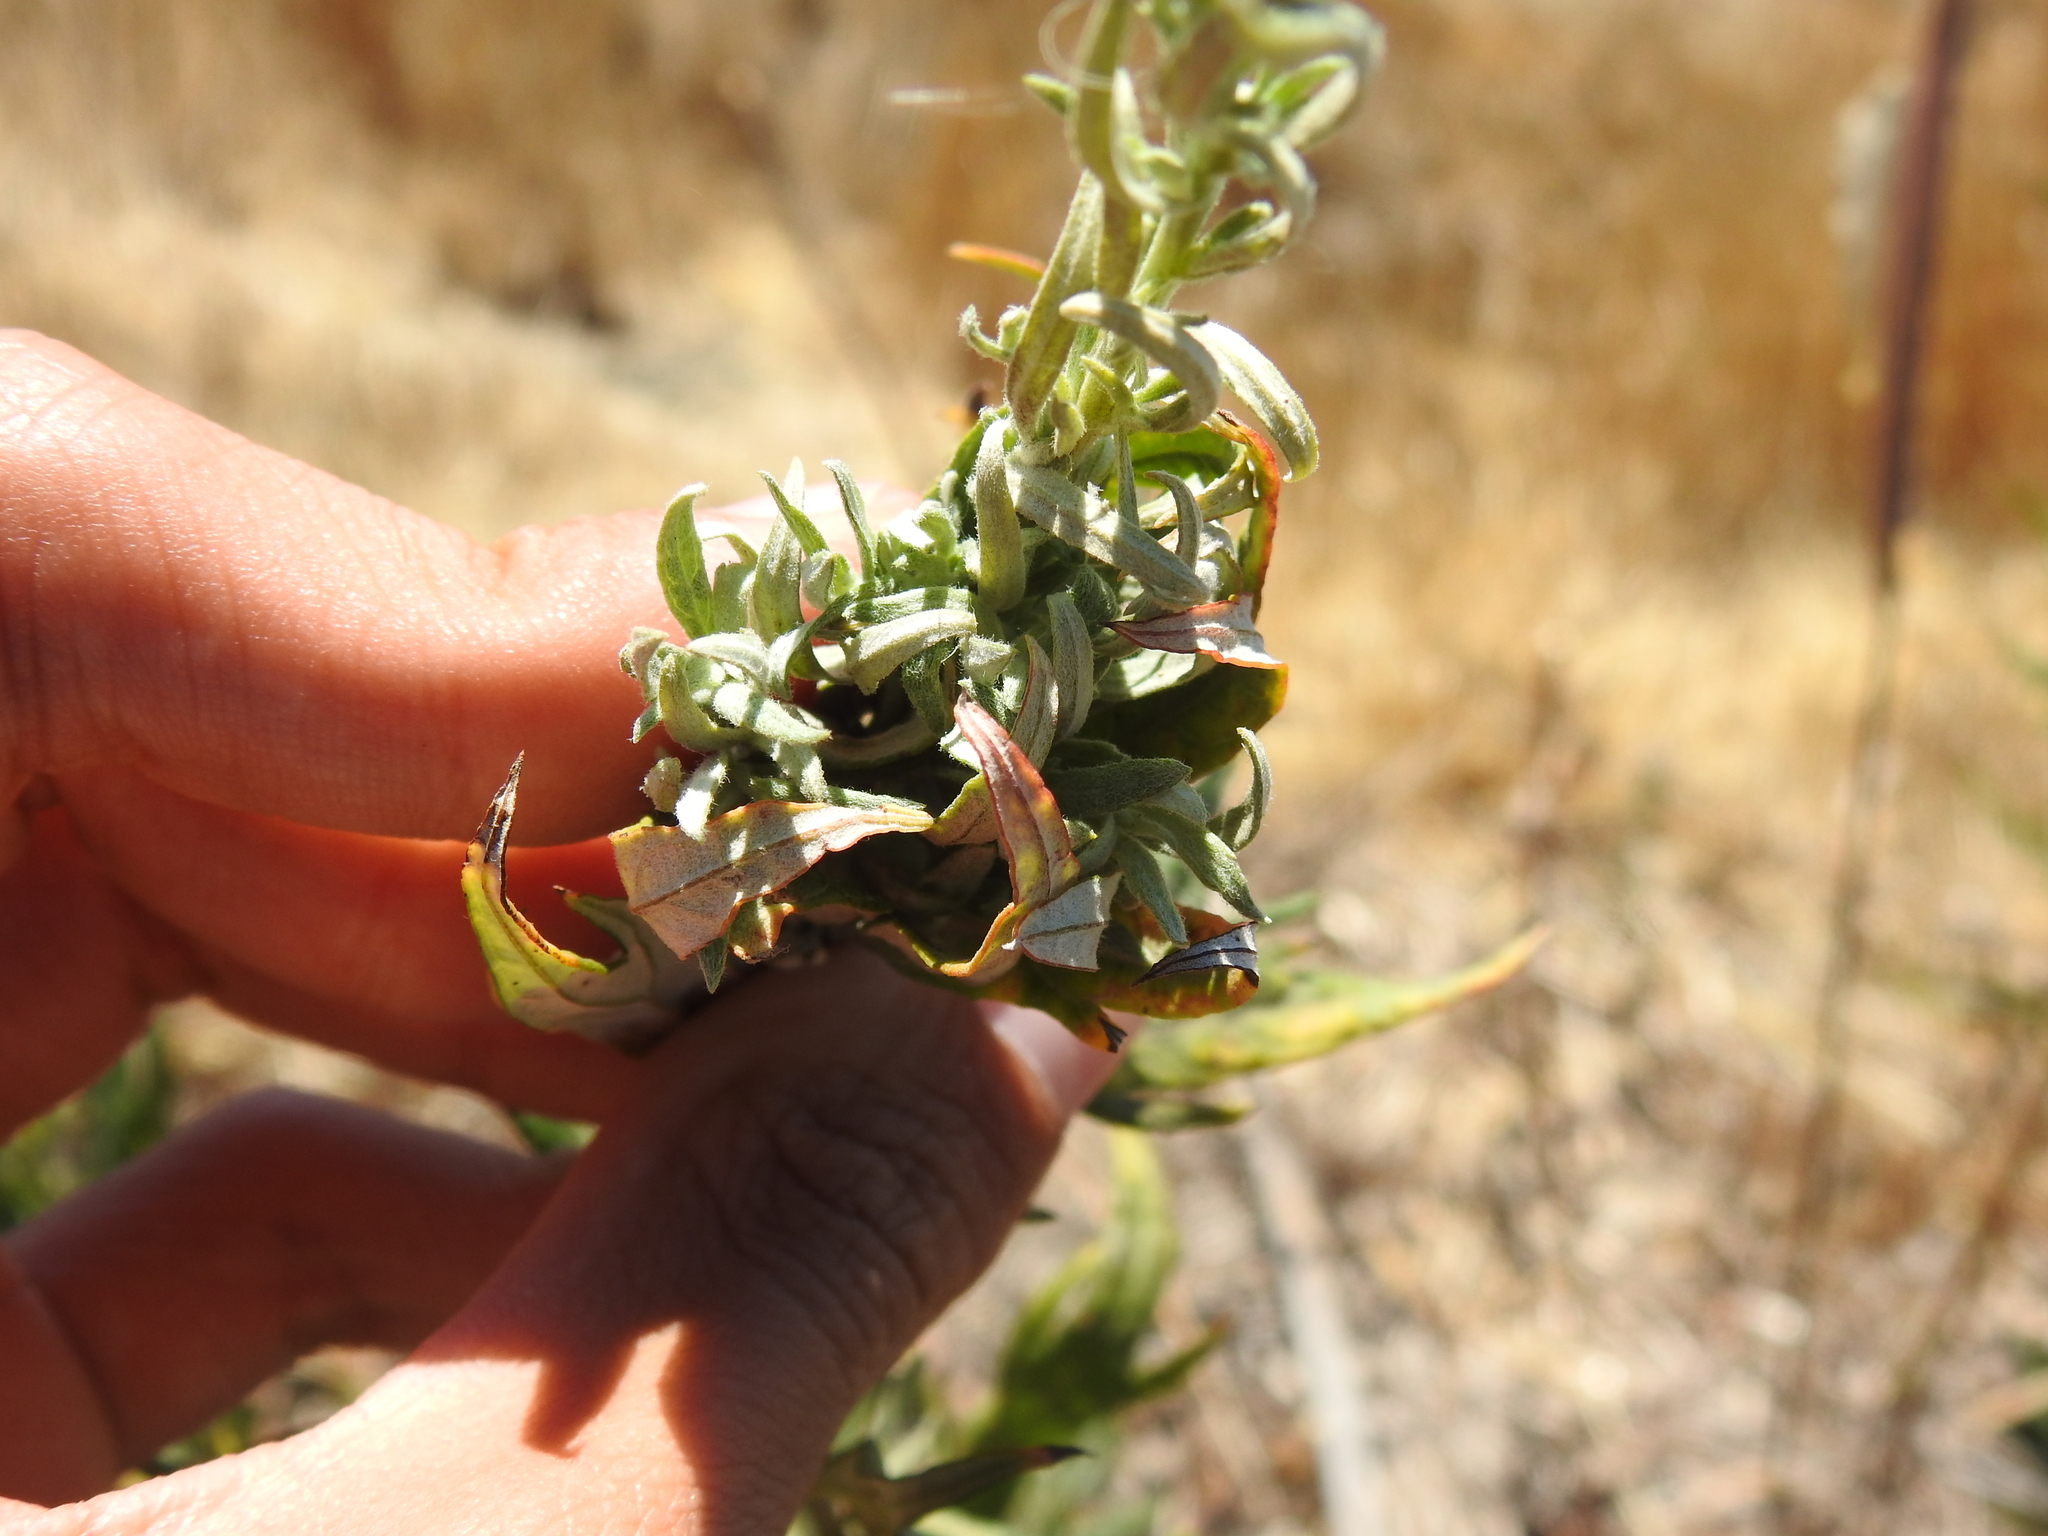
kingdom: Plantae
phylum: Tracheophyta
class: Magnoliopsida
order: Asterales
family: Asteraceae
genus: Artemisia
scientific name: Artemisia douglasiana
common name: Northwest mugwort
